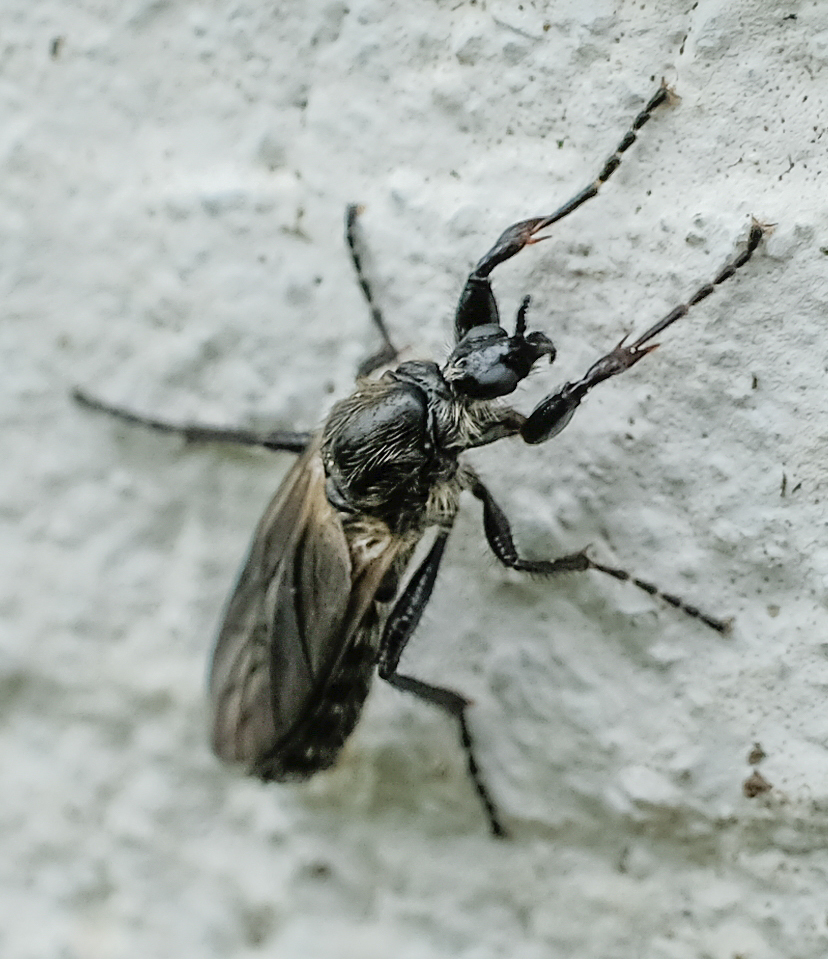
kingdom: Animalia
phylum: Arthropoda
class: Insecta
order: Diptera
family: Bibionidae
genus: Bibio
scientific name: Bibio albipennis
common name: White-winged march fly
